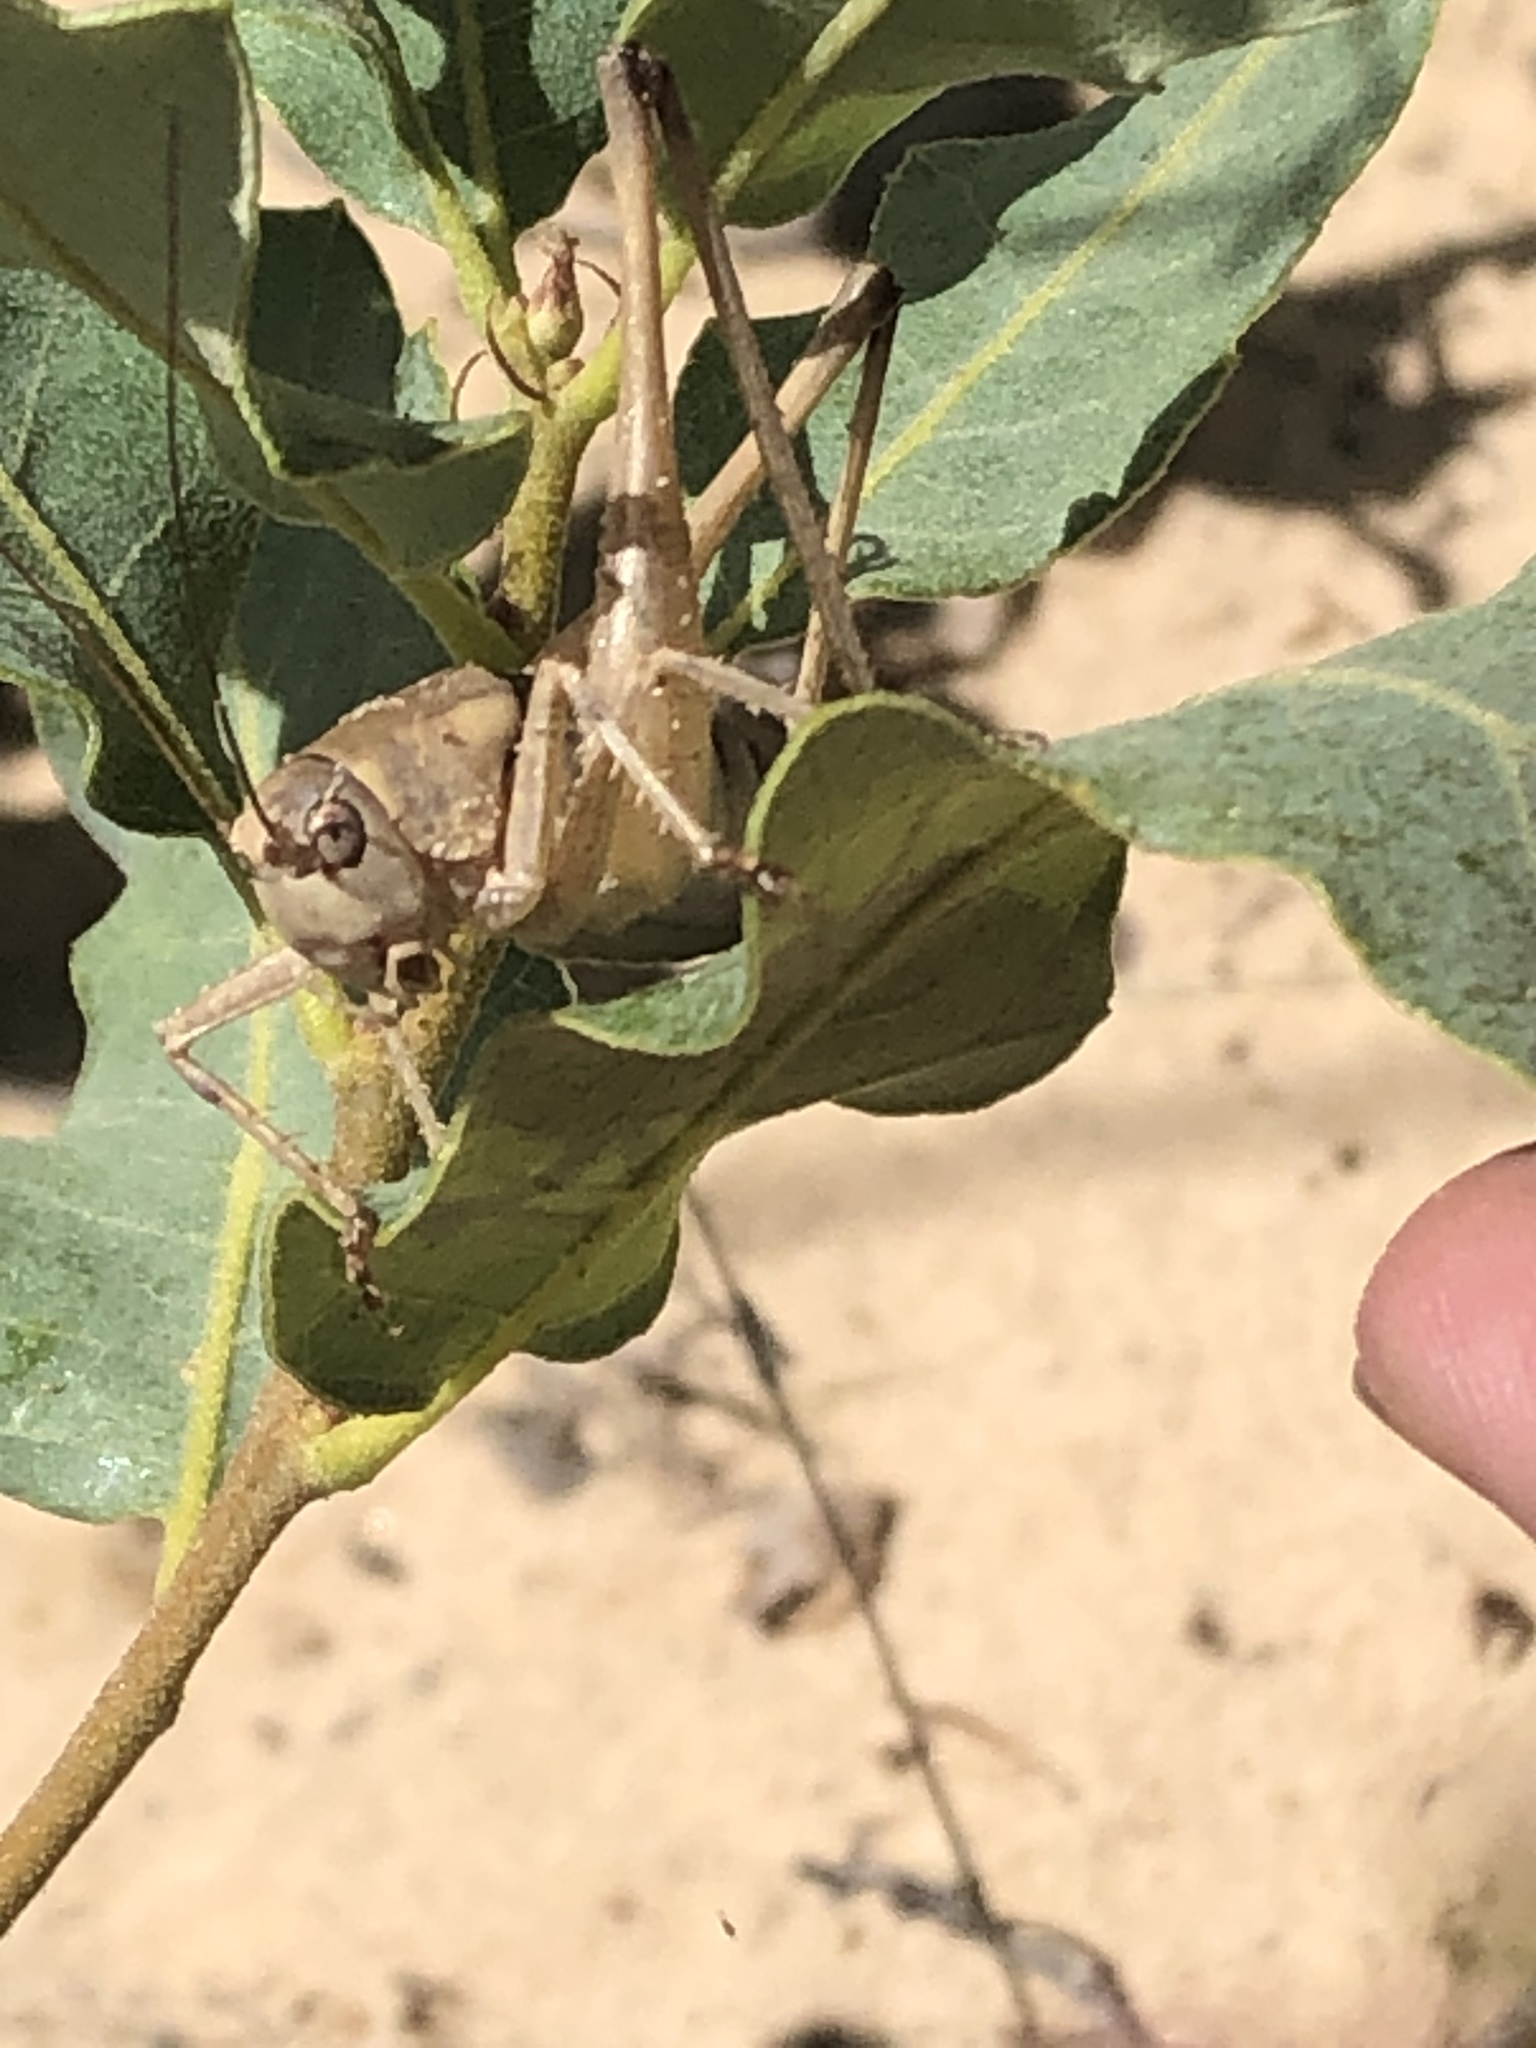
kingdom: Animalia
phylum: Arthropoda
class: Insecta
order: Orthoptera
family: Tettigoniidae
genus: Pediodectes
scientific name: Pediodectes haldemanii
